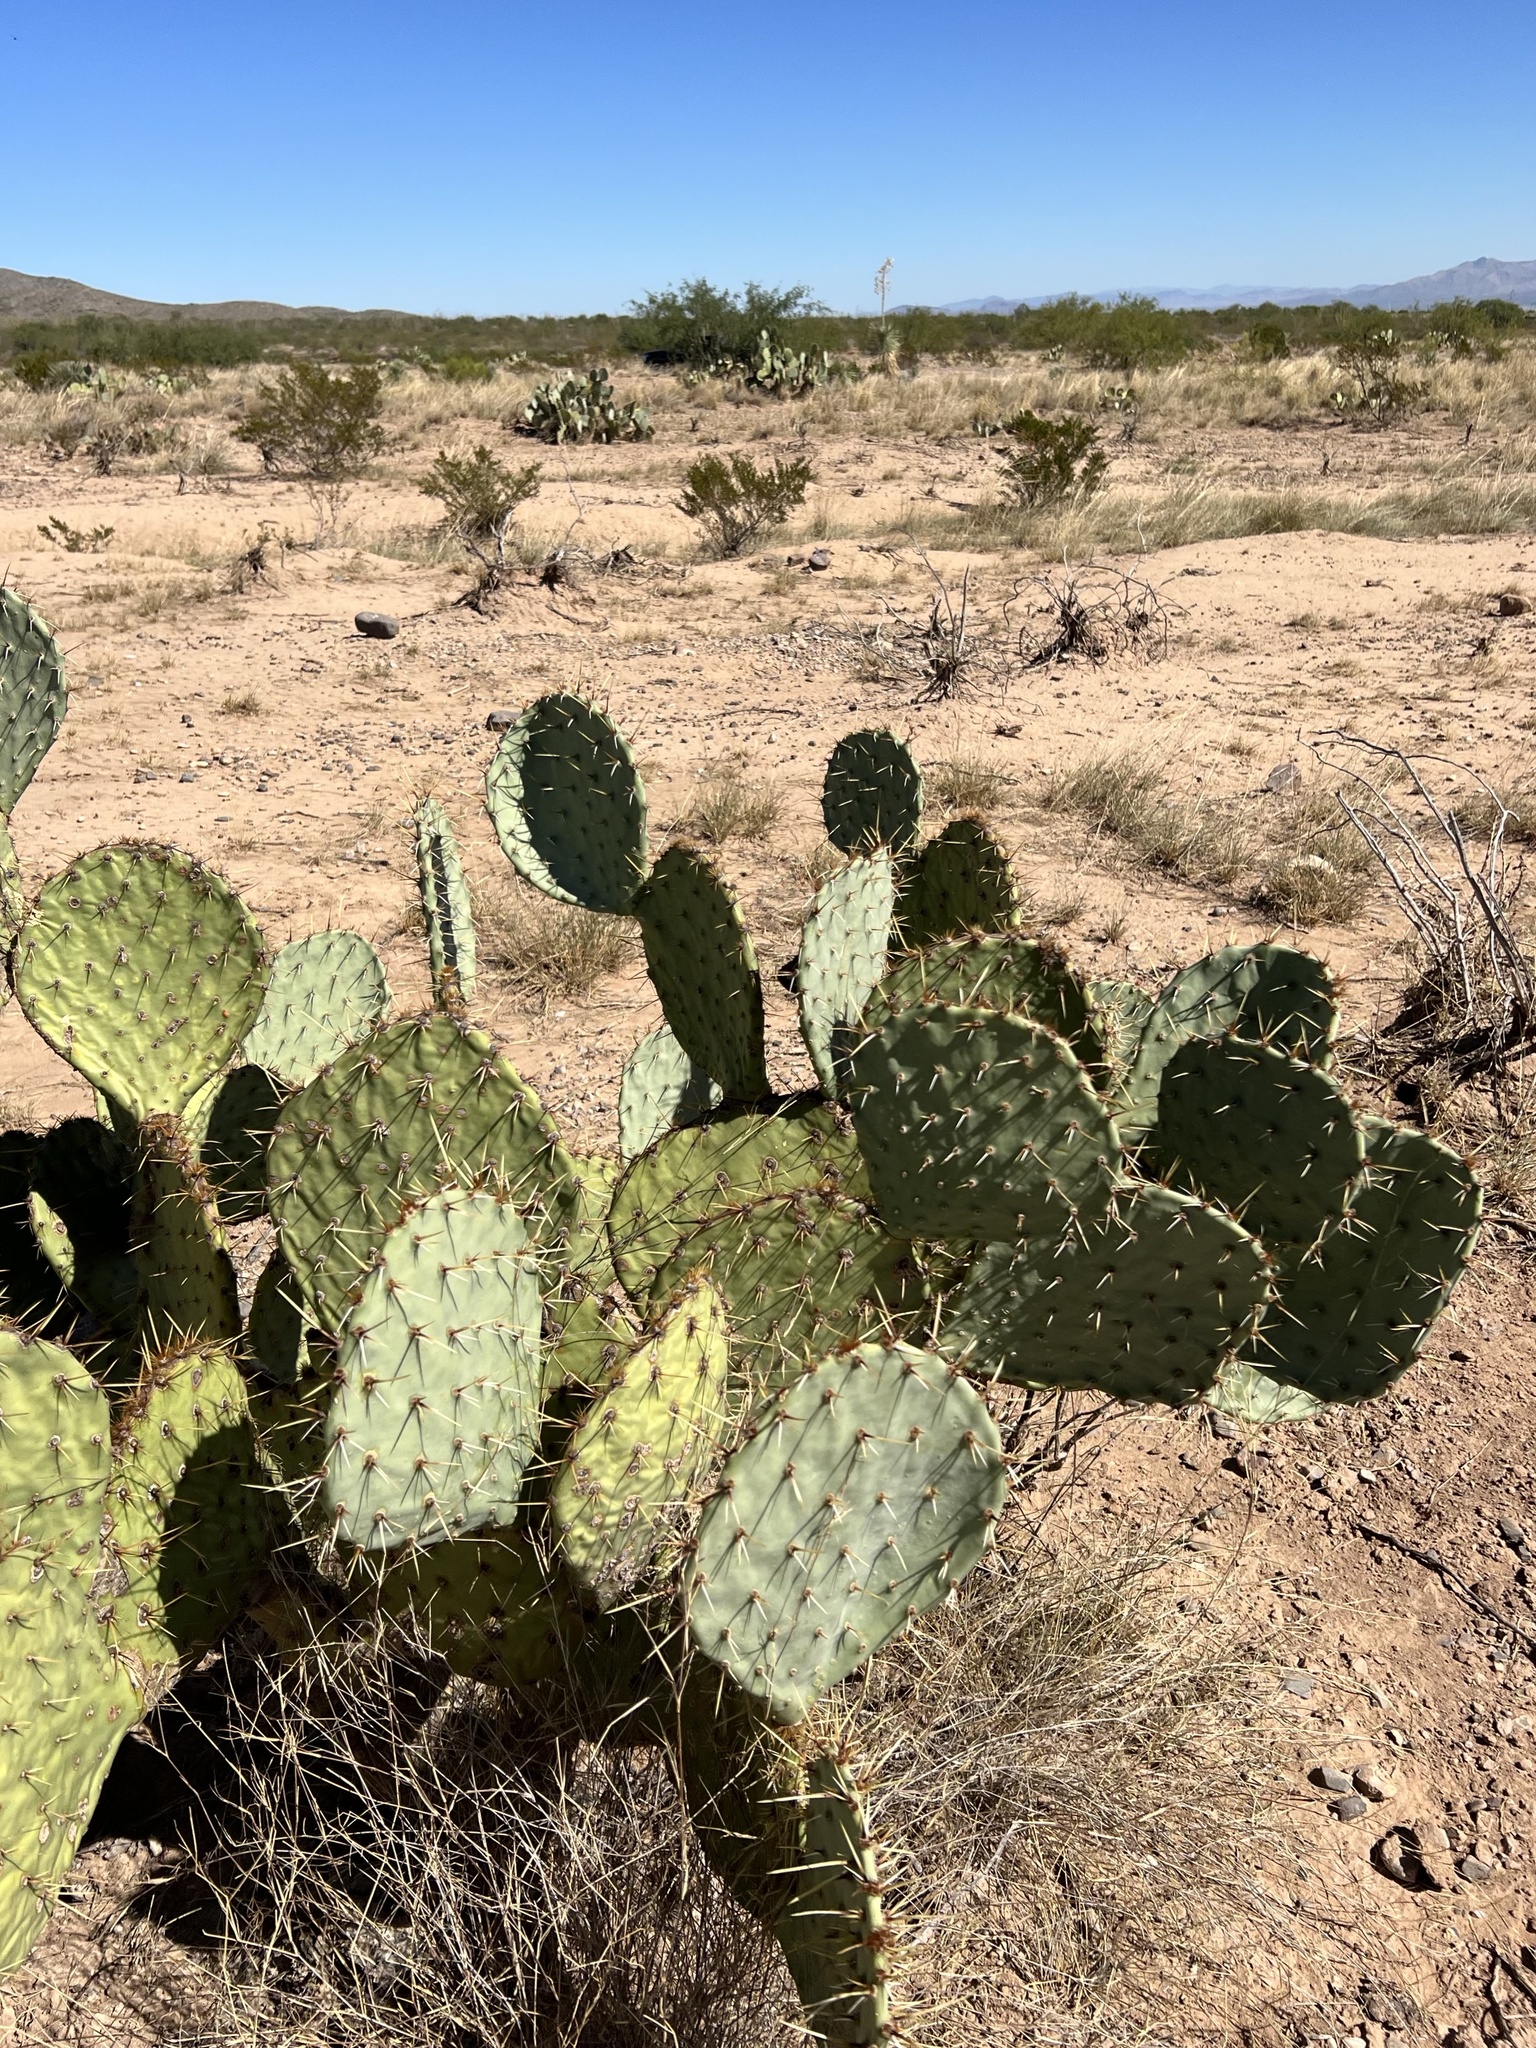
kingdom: Plantae
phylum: Tracheophyta
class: Magnoliopsida
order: Caryophyllales
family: Cactaceae
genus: Opuntia
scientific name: Opuntia engelmannii
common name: Cactus-apple
